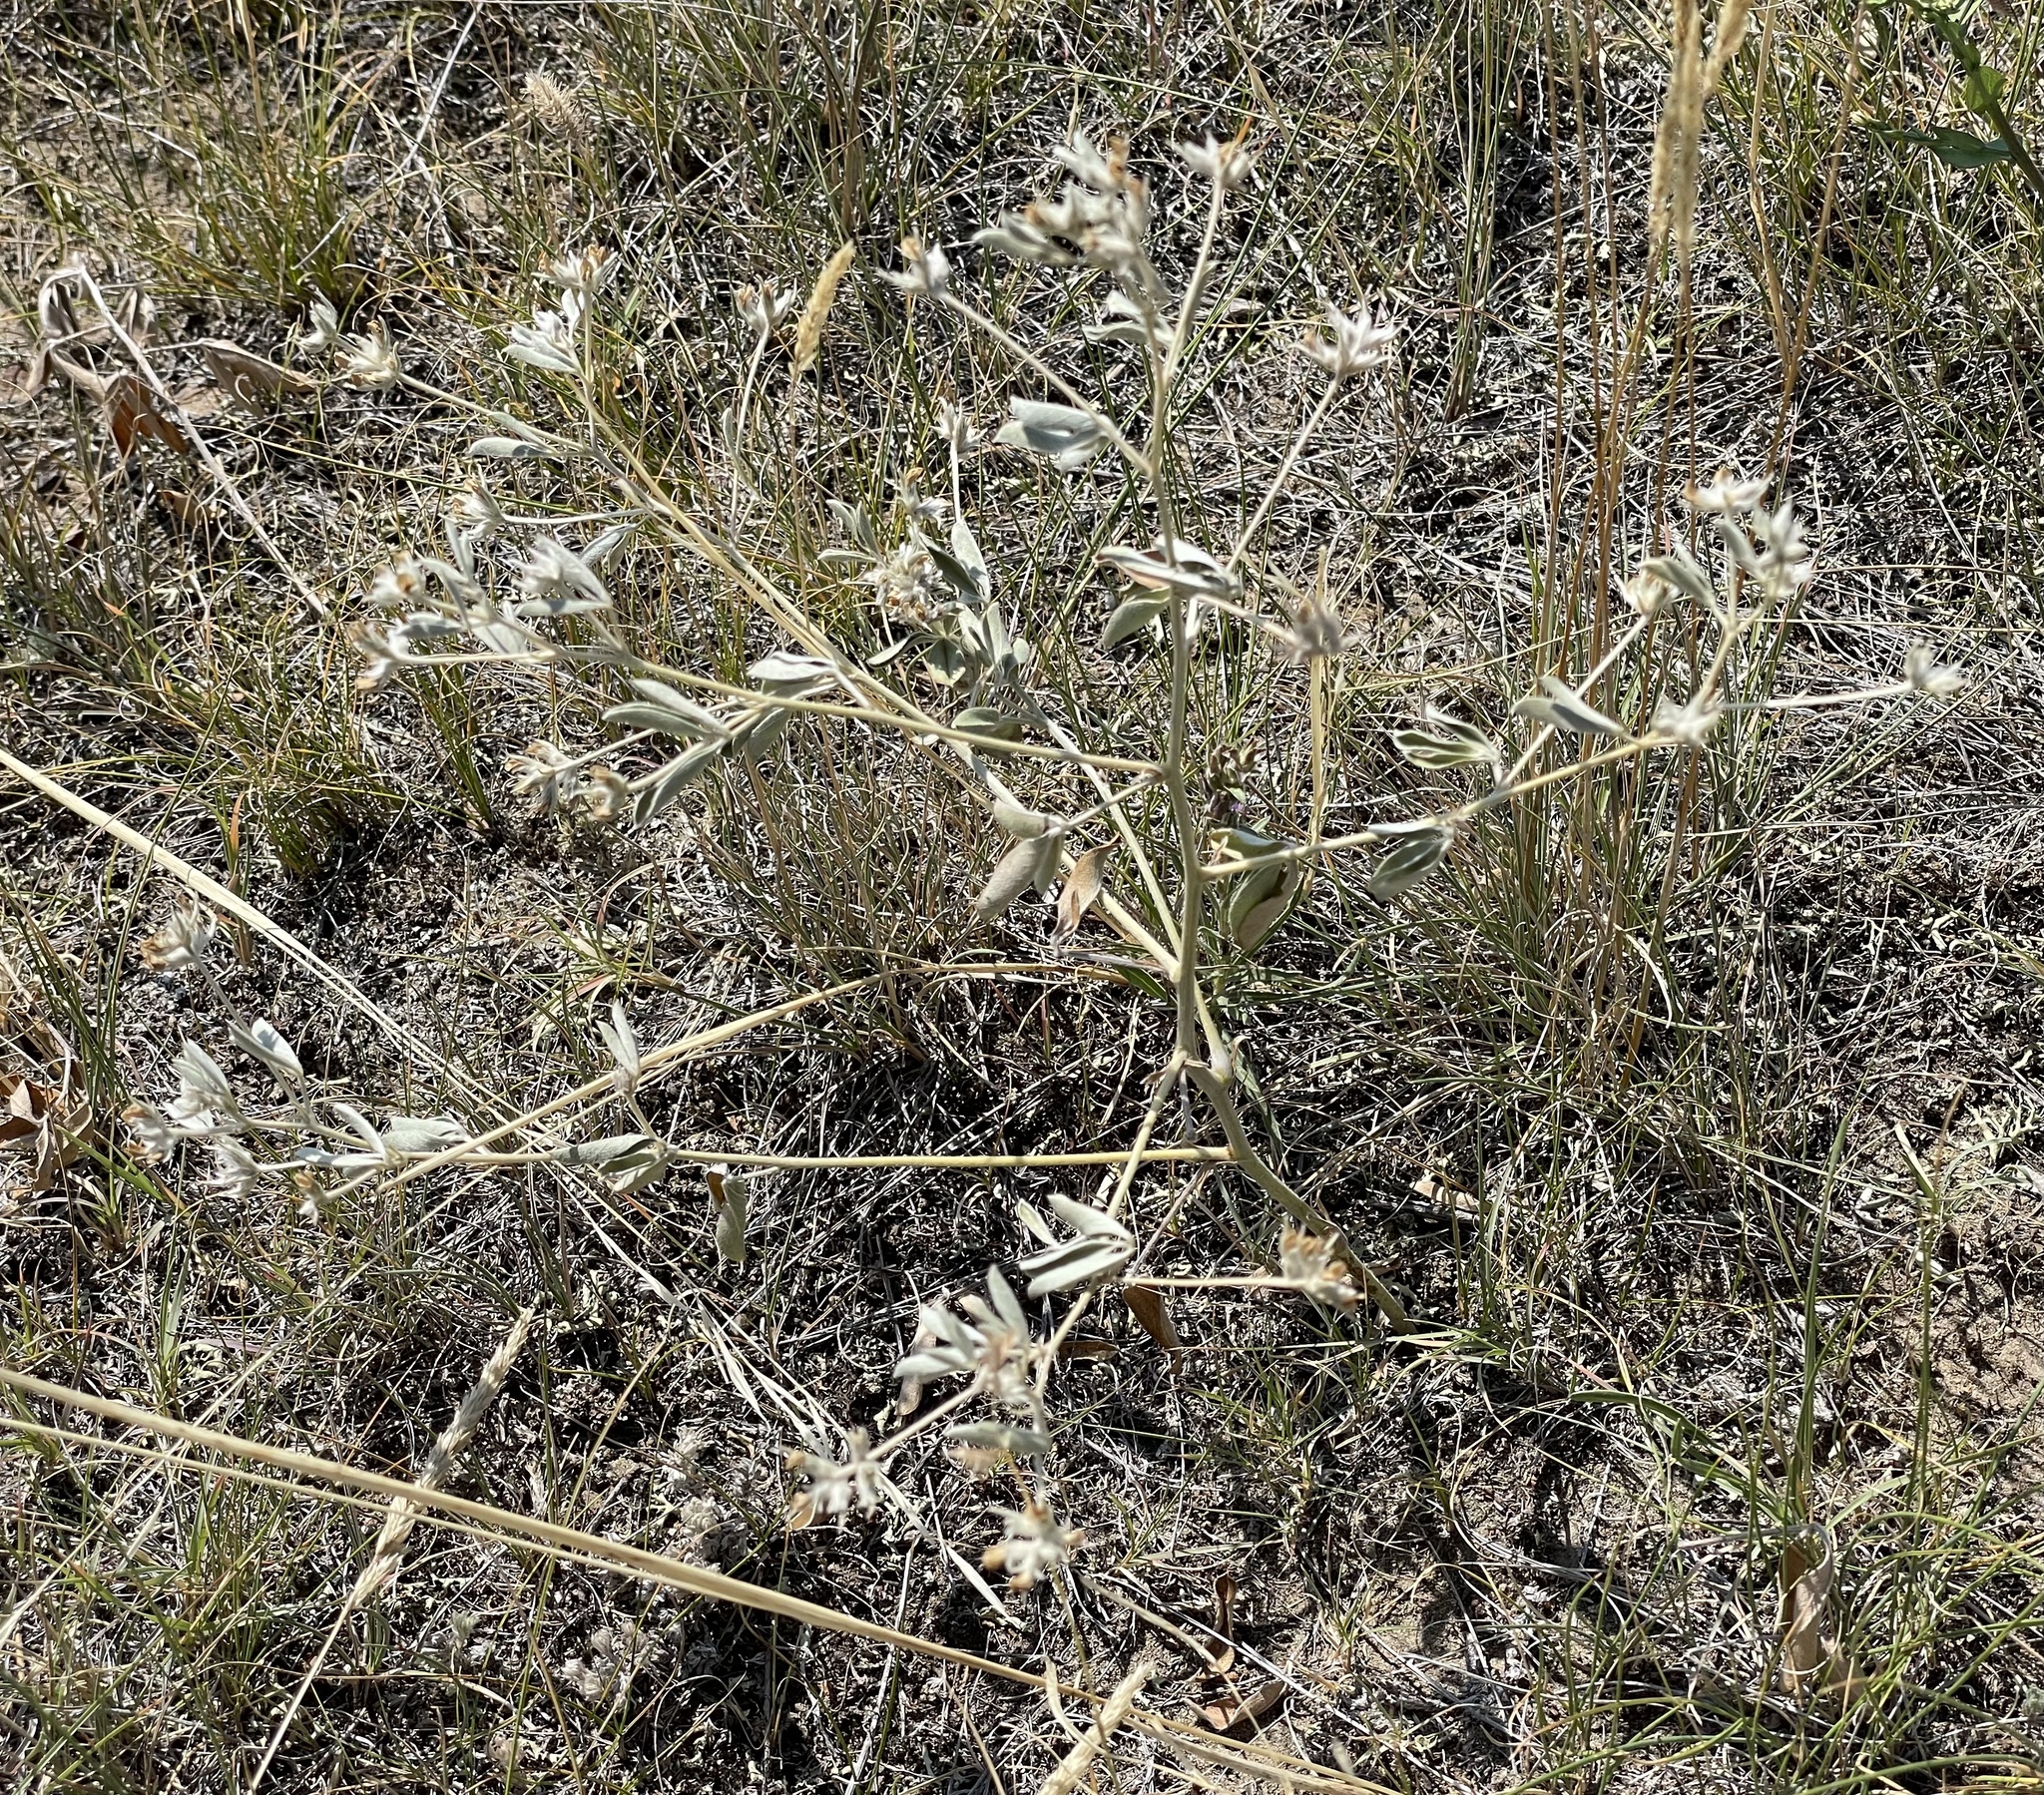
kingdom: Plantae
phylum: Tracheophyta
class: Magnoliopsida
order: Fabales
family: Fabaceae
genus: Pediomelum
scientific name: Pediomelum argophyllum
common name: Silver-leaved indian breadroot
